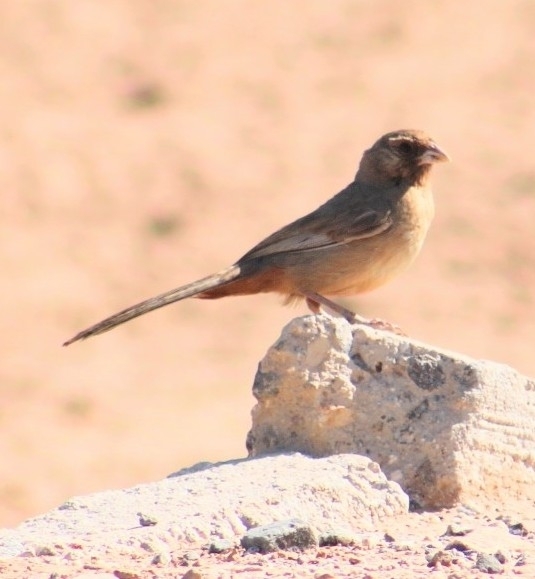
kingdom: Animalia
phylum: Chordata
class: Aves
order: Passeriformes
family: Passerellidae
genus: Melozone
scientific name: Melozone aberti
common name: Abert's towhee
